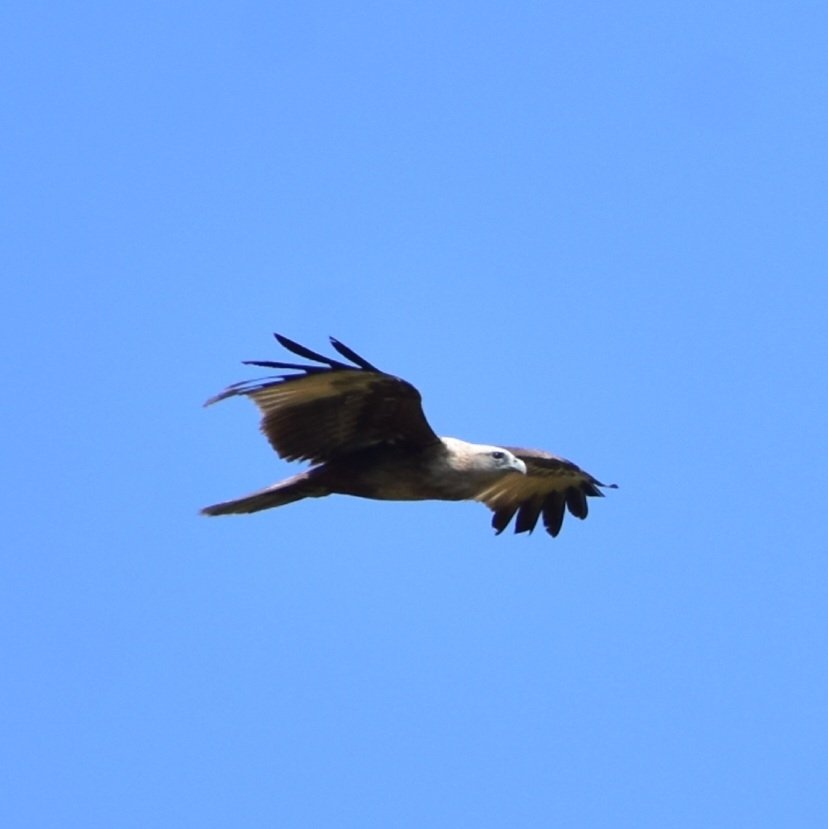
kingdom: Animalia
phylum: Chordata
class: Aves
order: Accipitriformes
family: Accipitridae
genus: Haliastur
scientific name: Haliastur indus
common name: Brahminy kite
